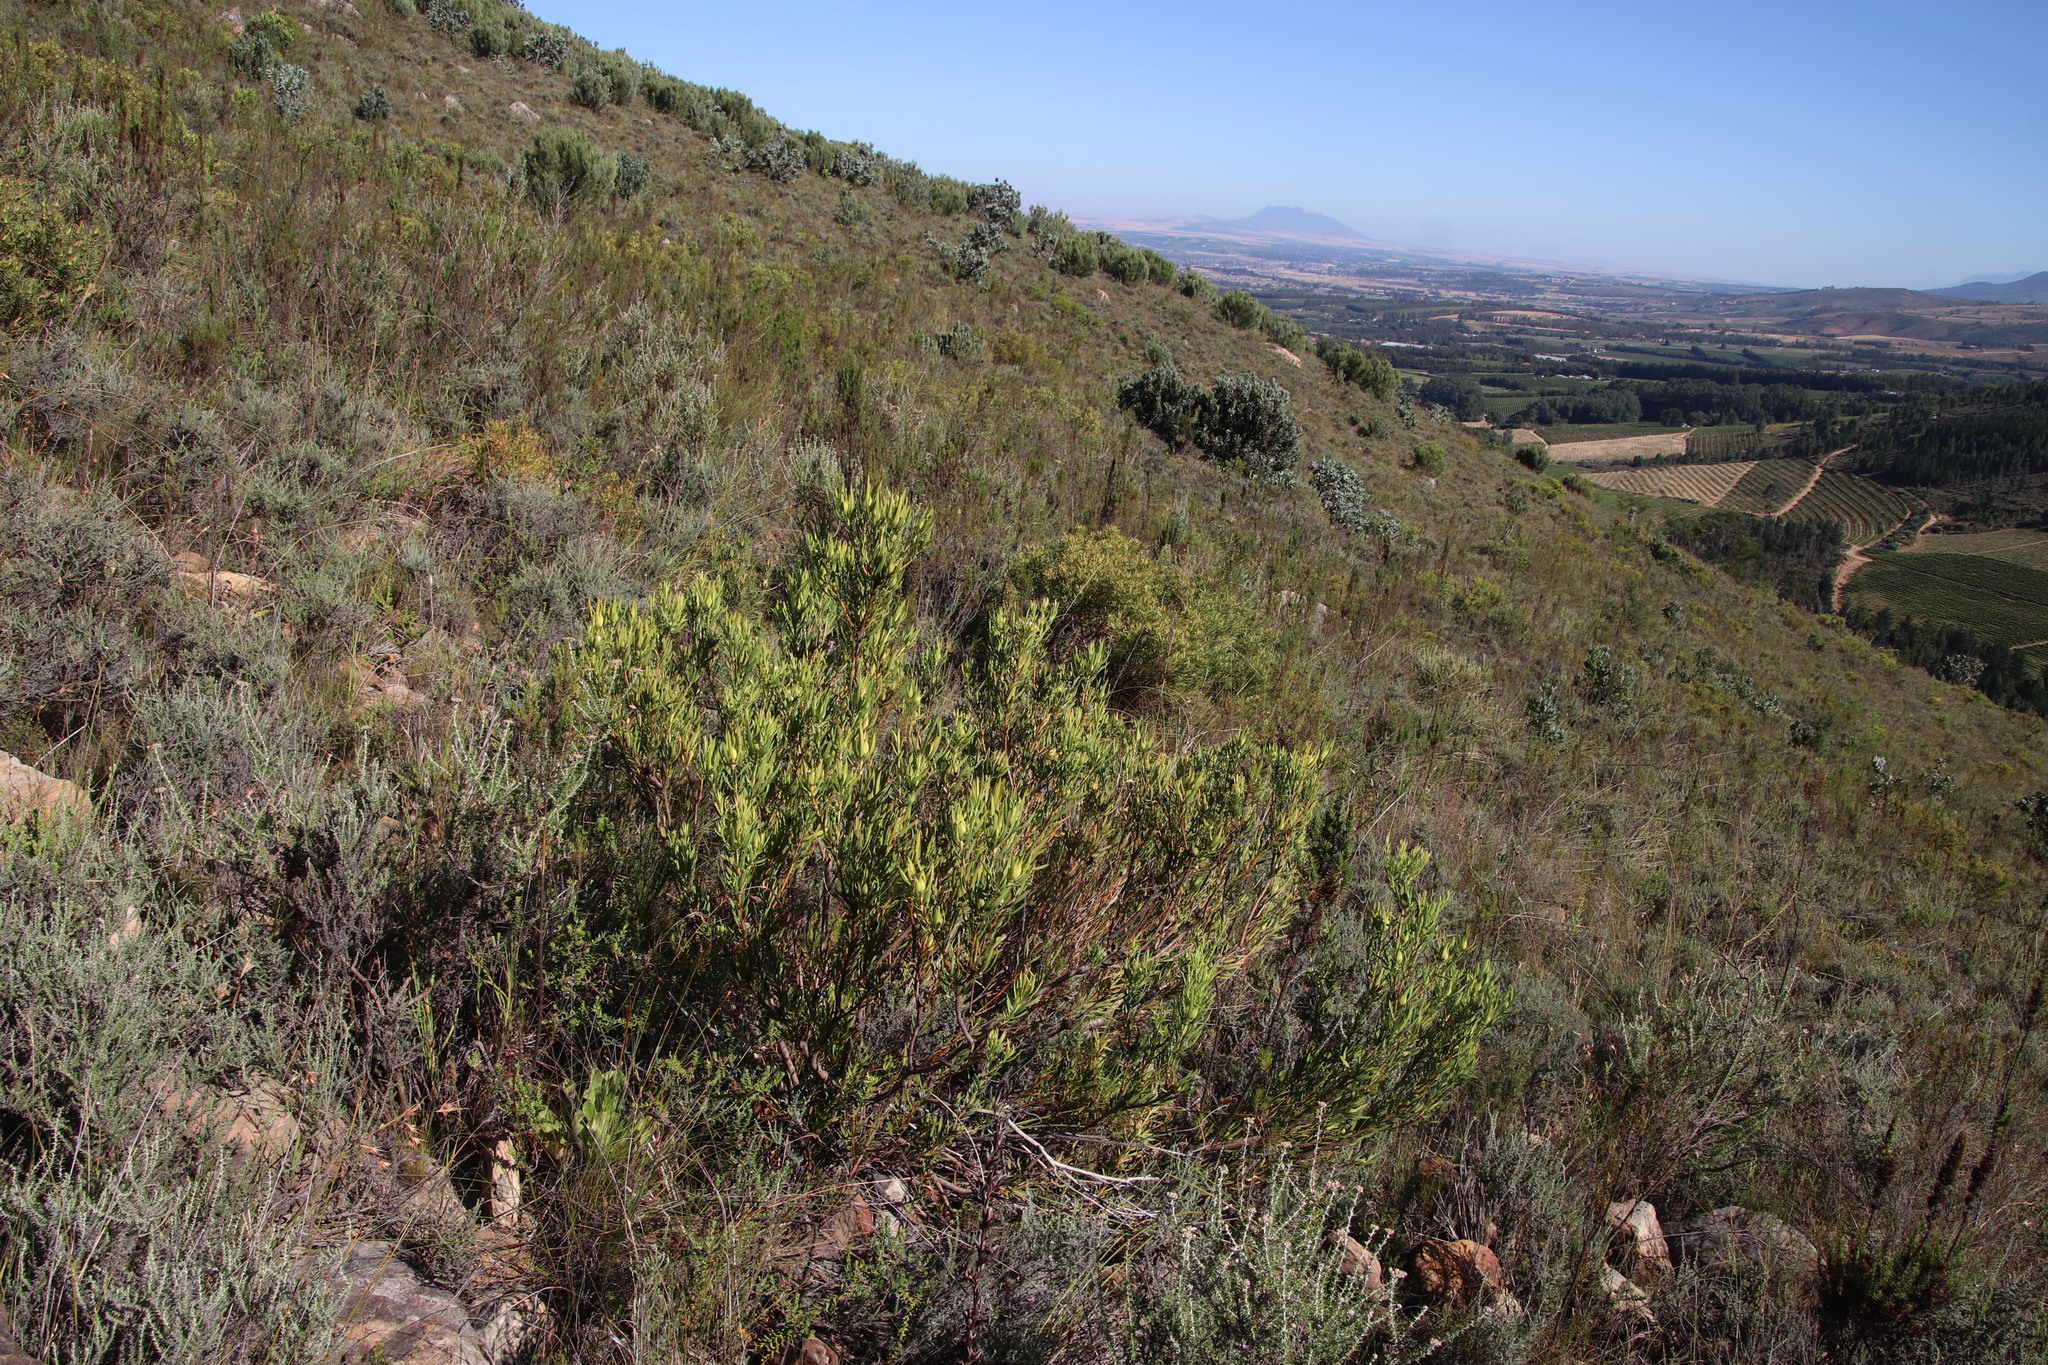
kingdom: Plantae
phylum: Tracheophyta
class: Magnoliopsida
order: Proteales
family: Proteaceae
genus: Leucadendron
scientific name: Leucadendron salignum
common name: Common sunshine conebush
